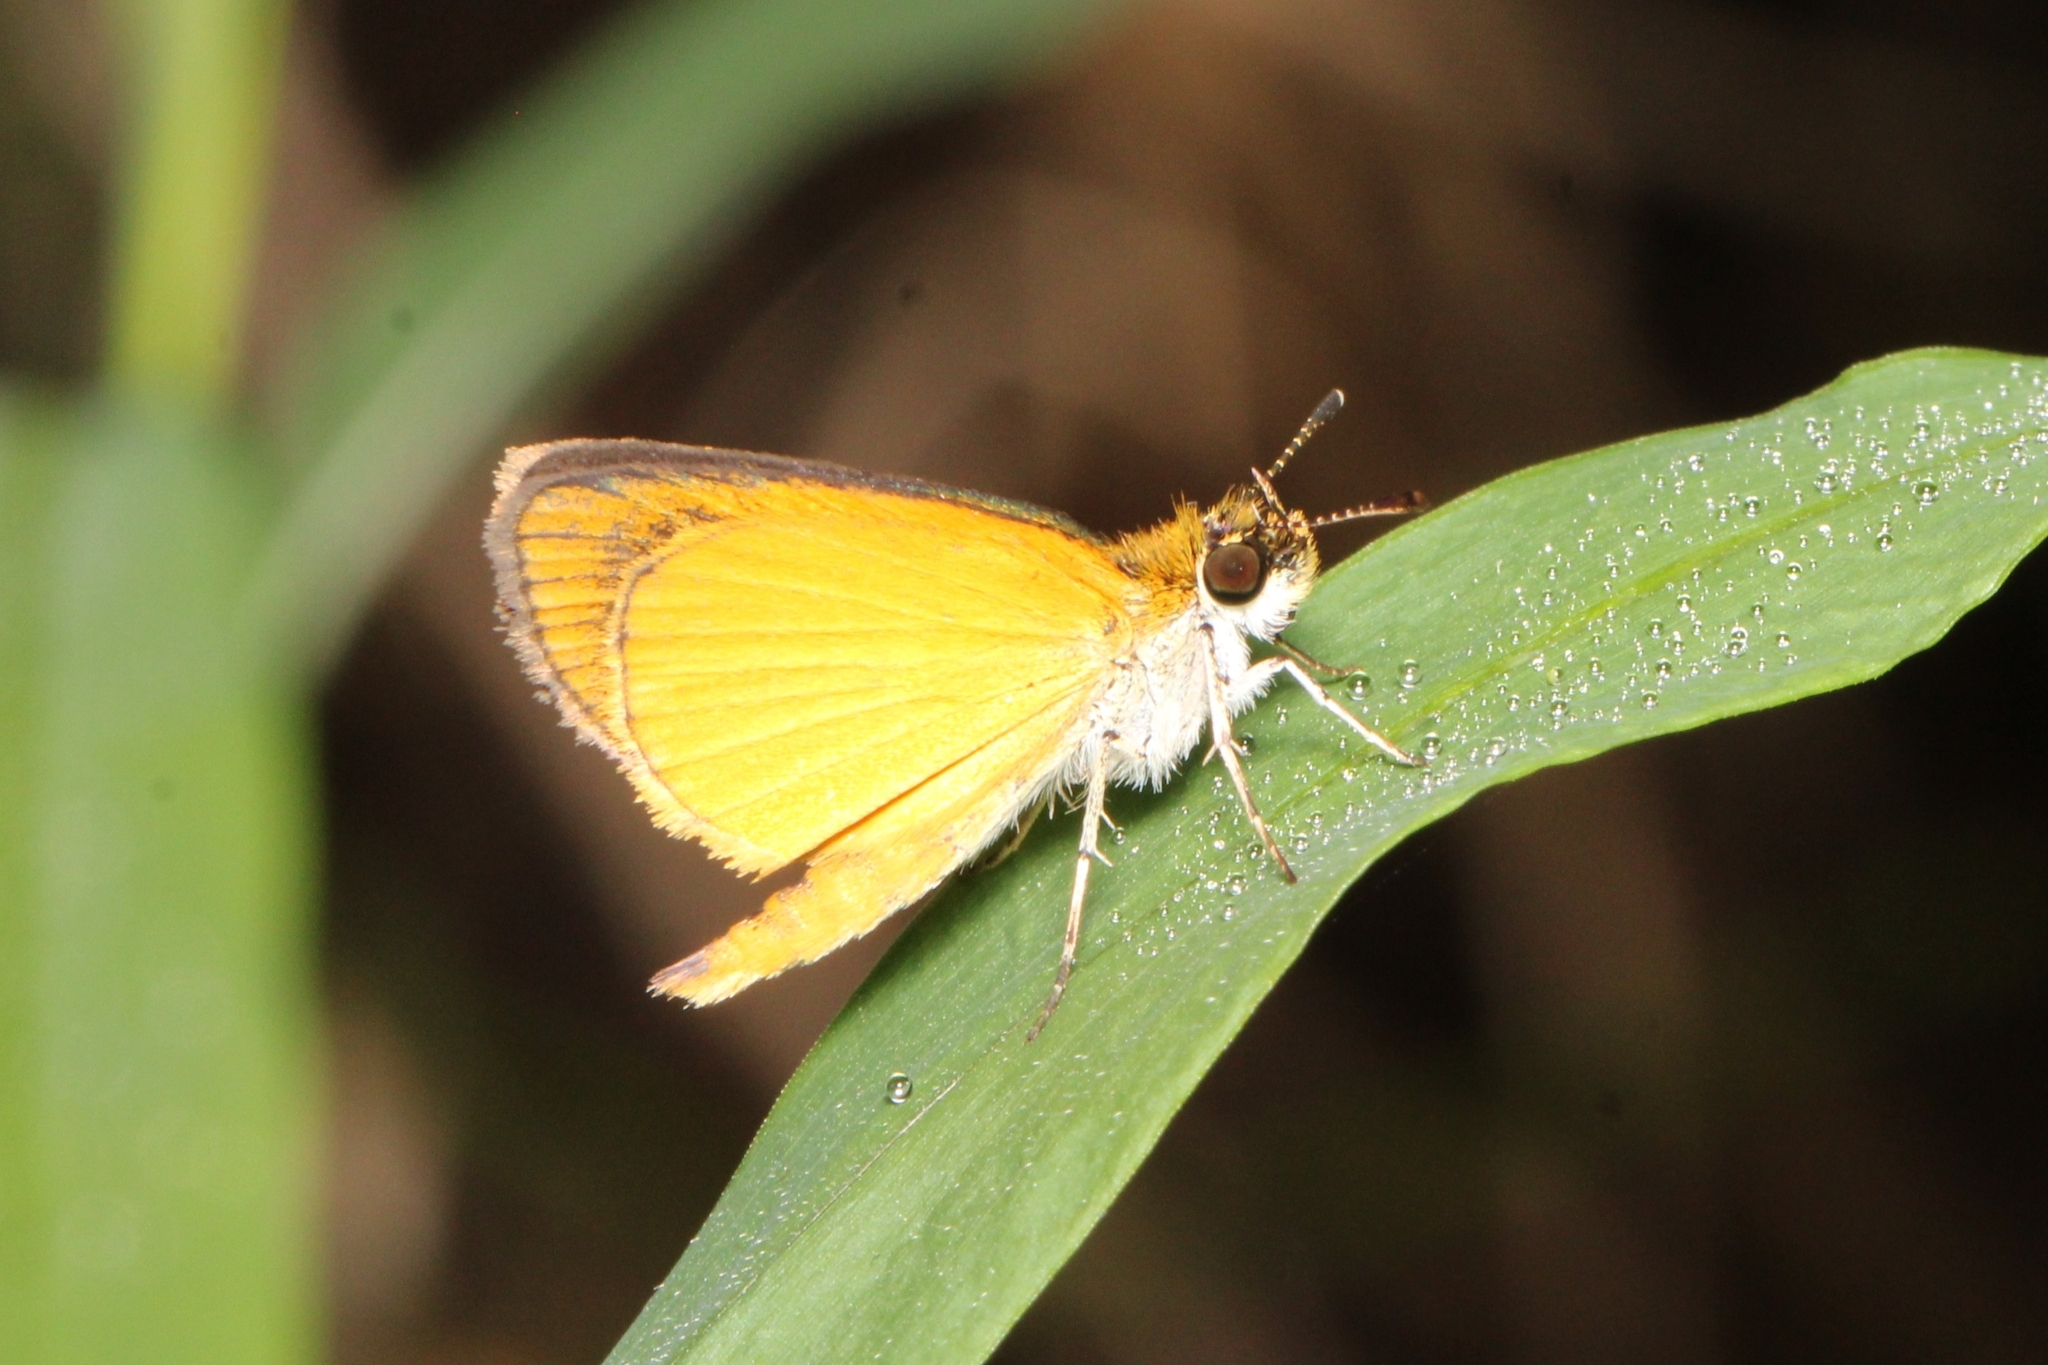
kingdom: Animalia
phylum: Arthropoda
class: Insecta
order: Lepidoptera
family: Hesperiidae
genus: Ancyloxypha
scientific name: Ancyloxypha numitor
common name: Least skipper
